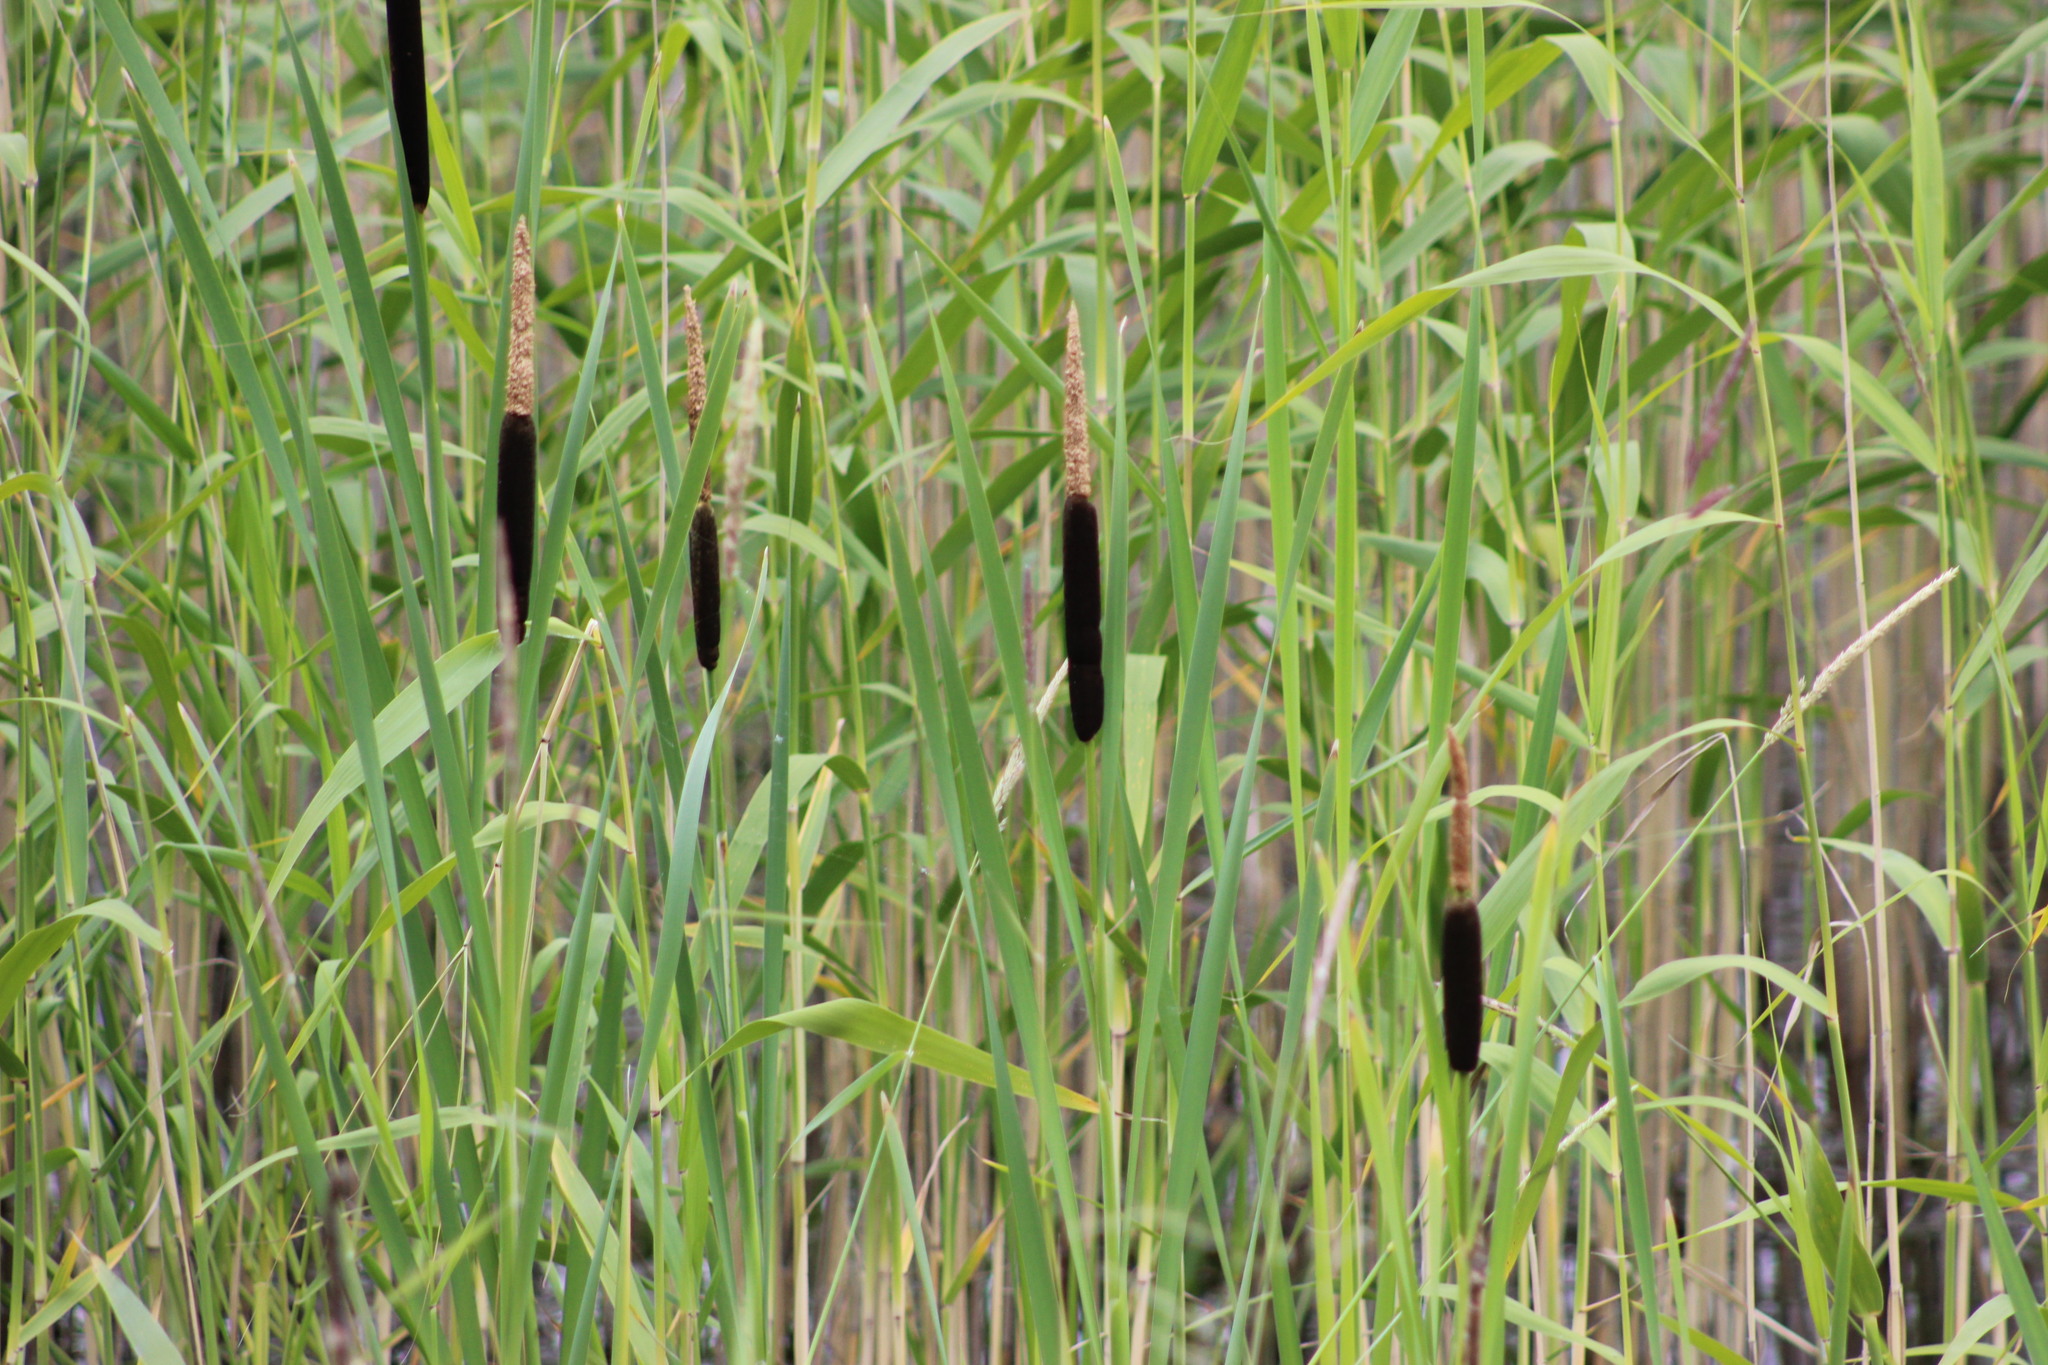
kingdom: Plantae
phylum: Tracheophyta
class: Liliopsida
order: Poales
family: Typhaceae
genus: Typha
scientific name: Typha latifolia
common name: Broadleaf cattail
